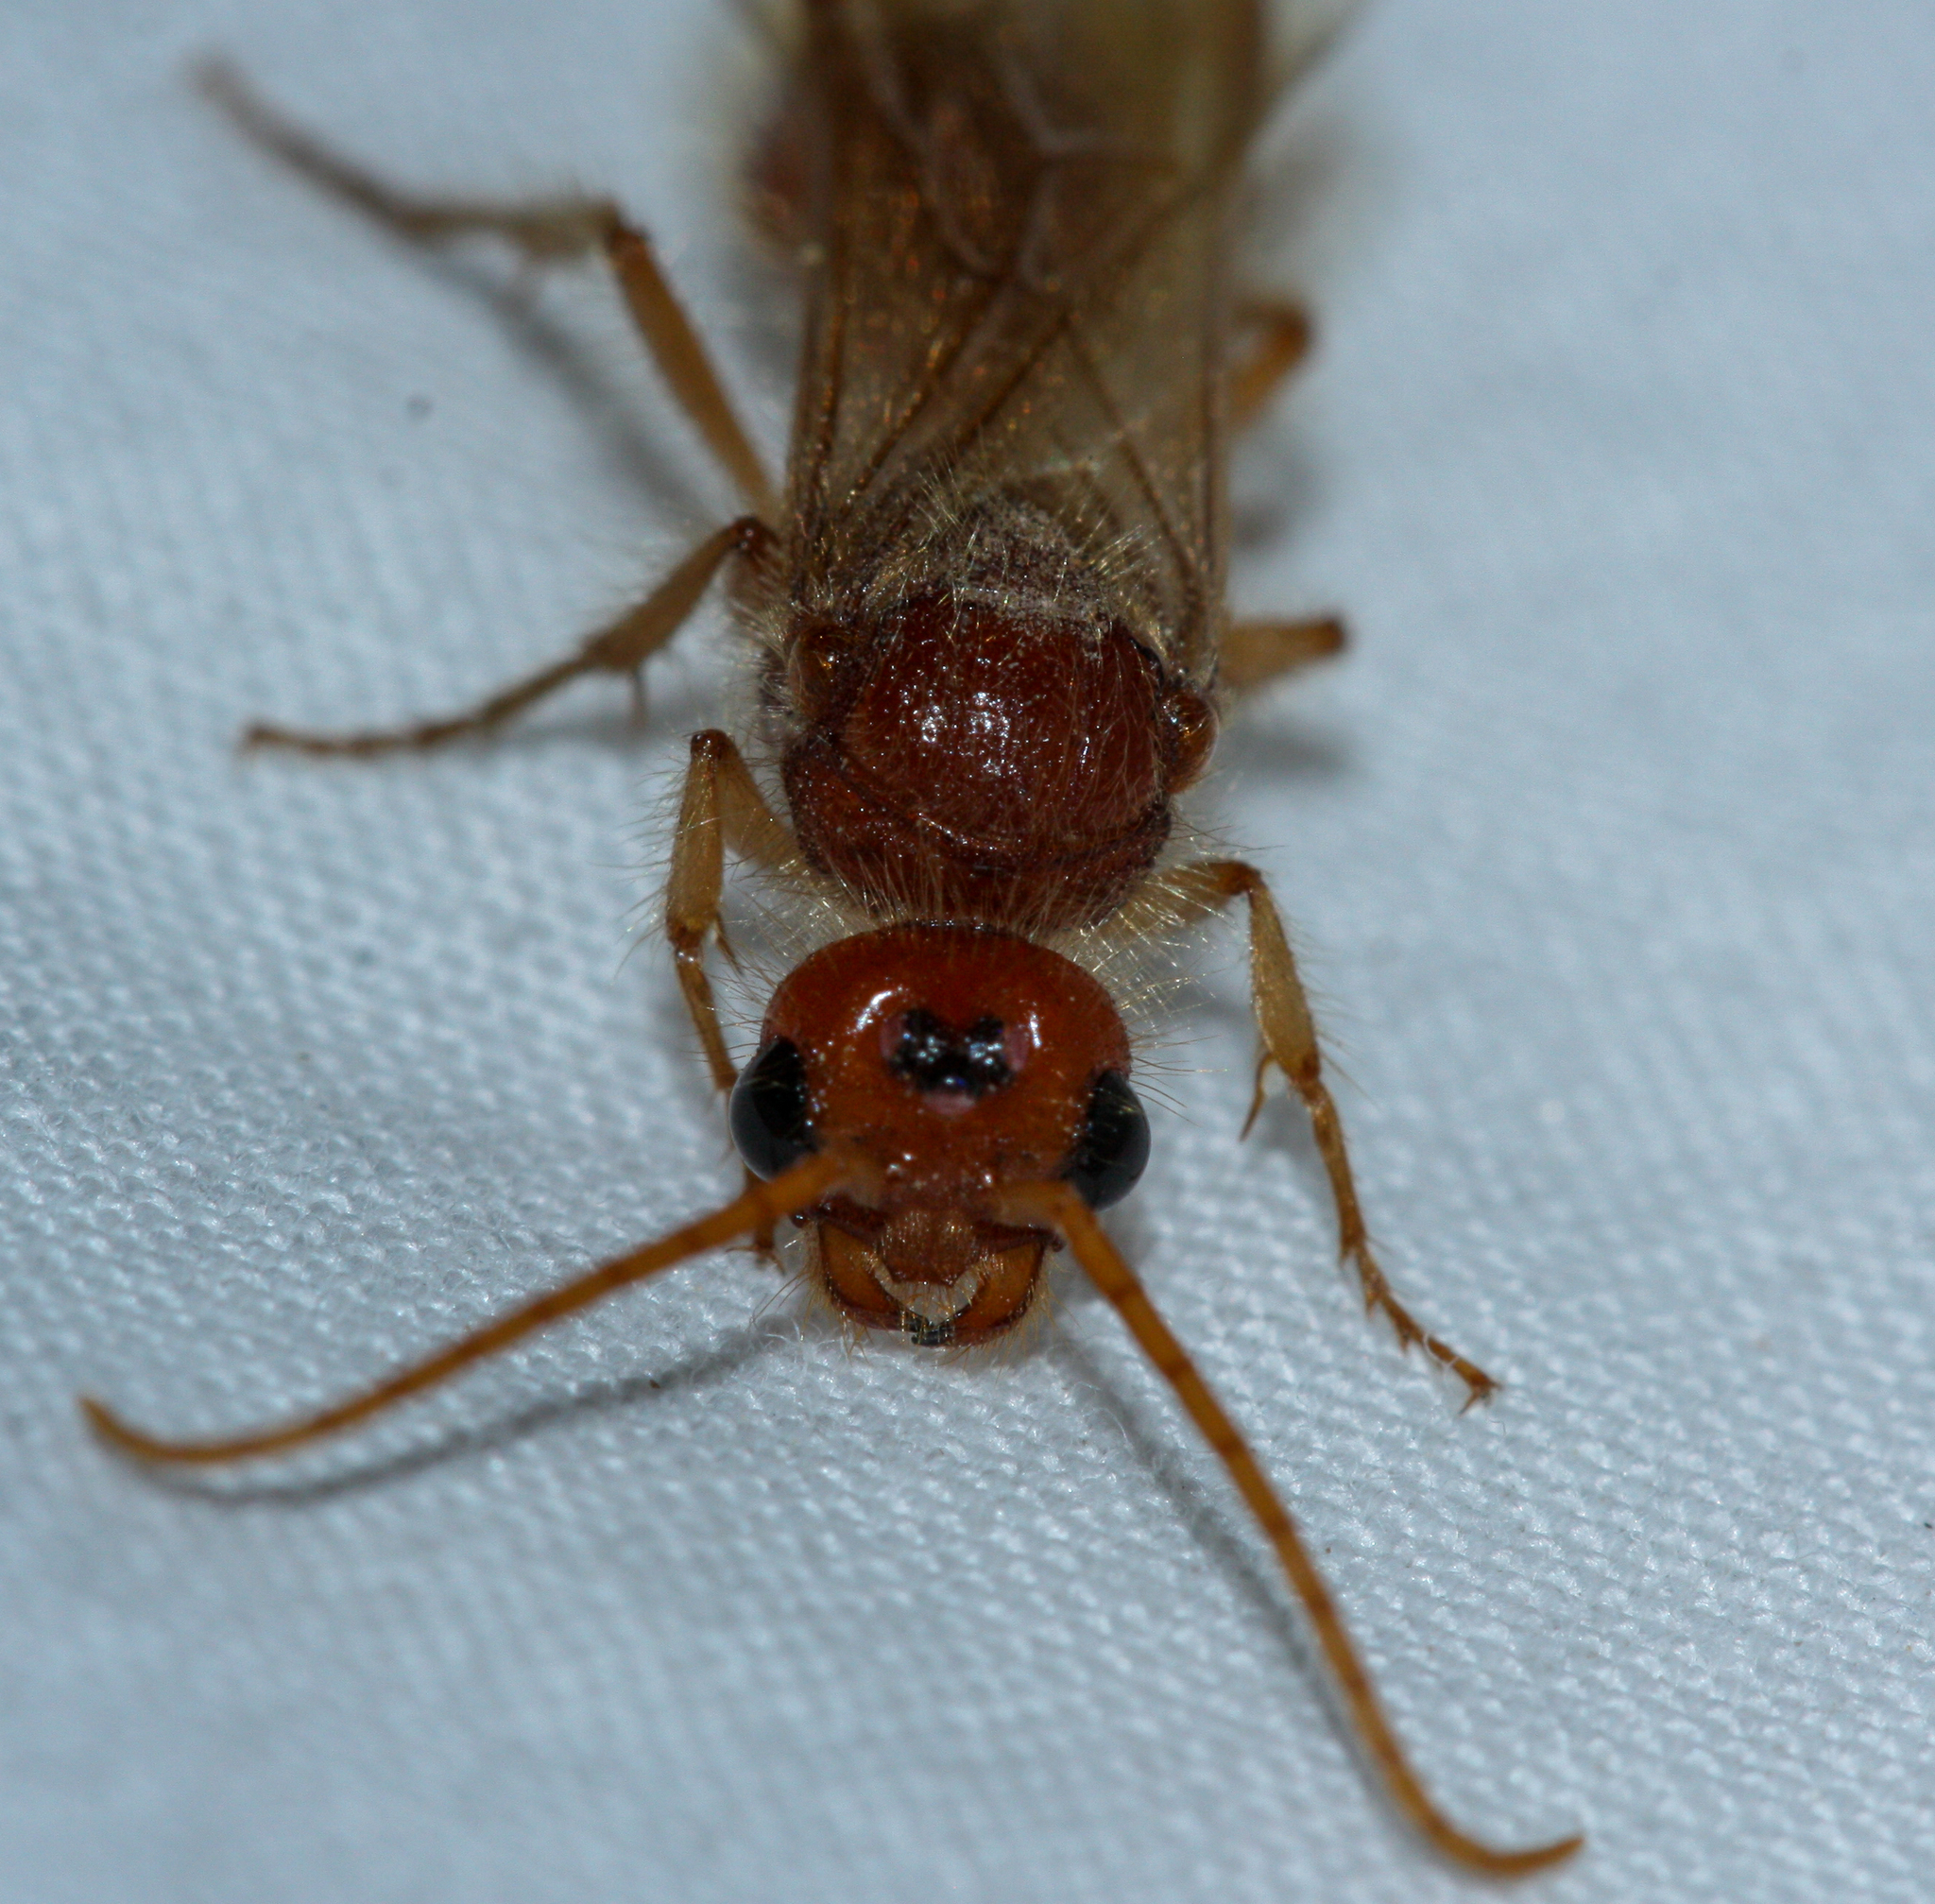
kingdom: Animalia
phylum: Arthropoda
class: Insecta
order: Hymenoptera
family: Mutillidae
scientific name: Mutillidae
